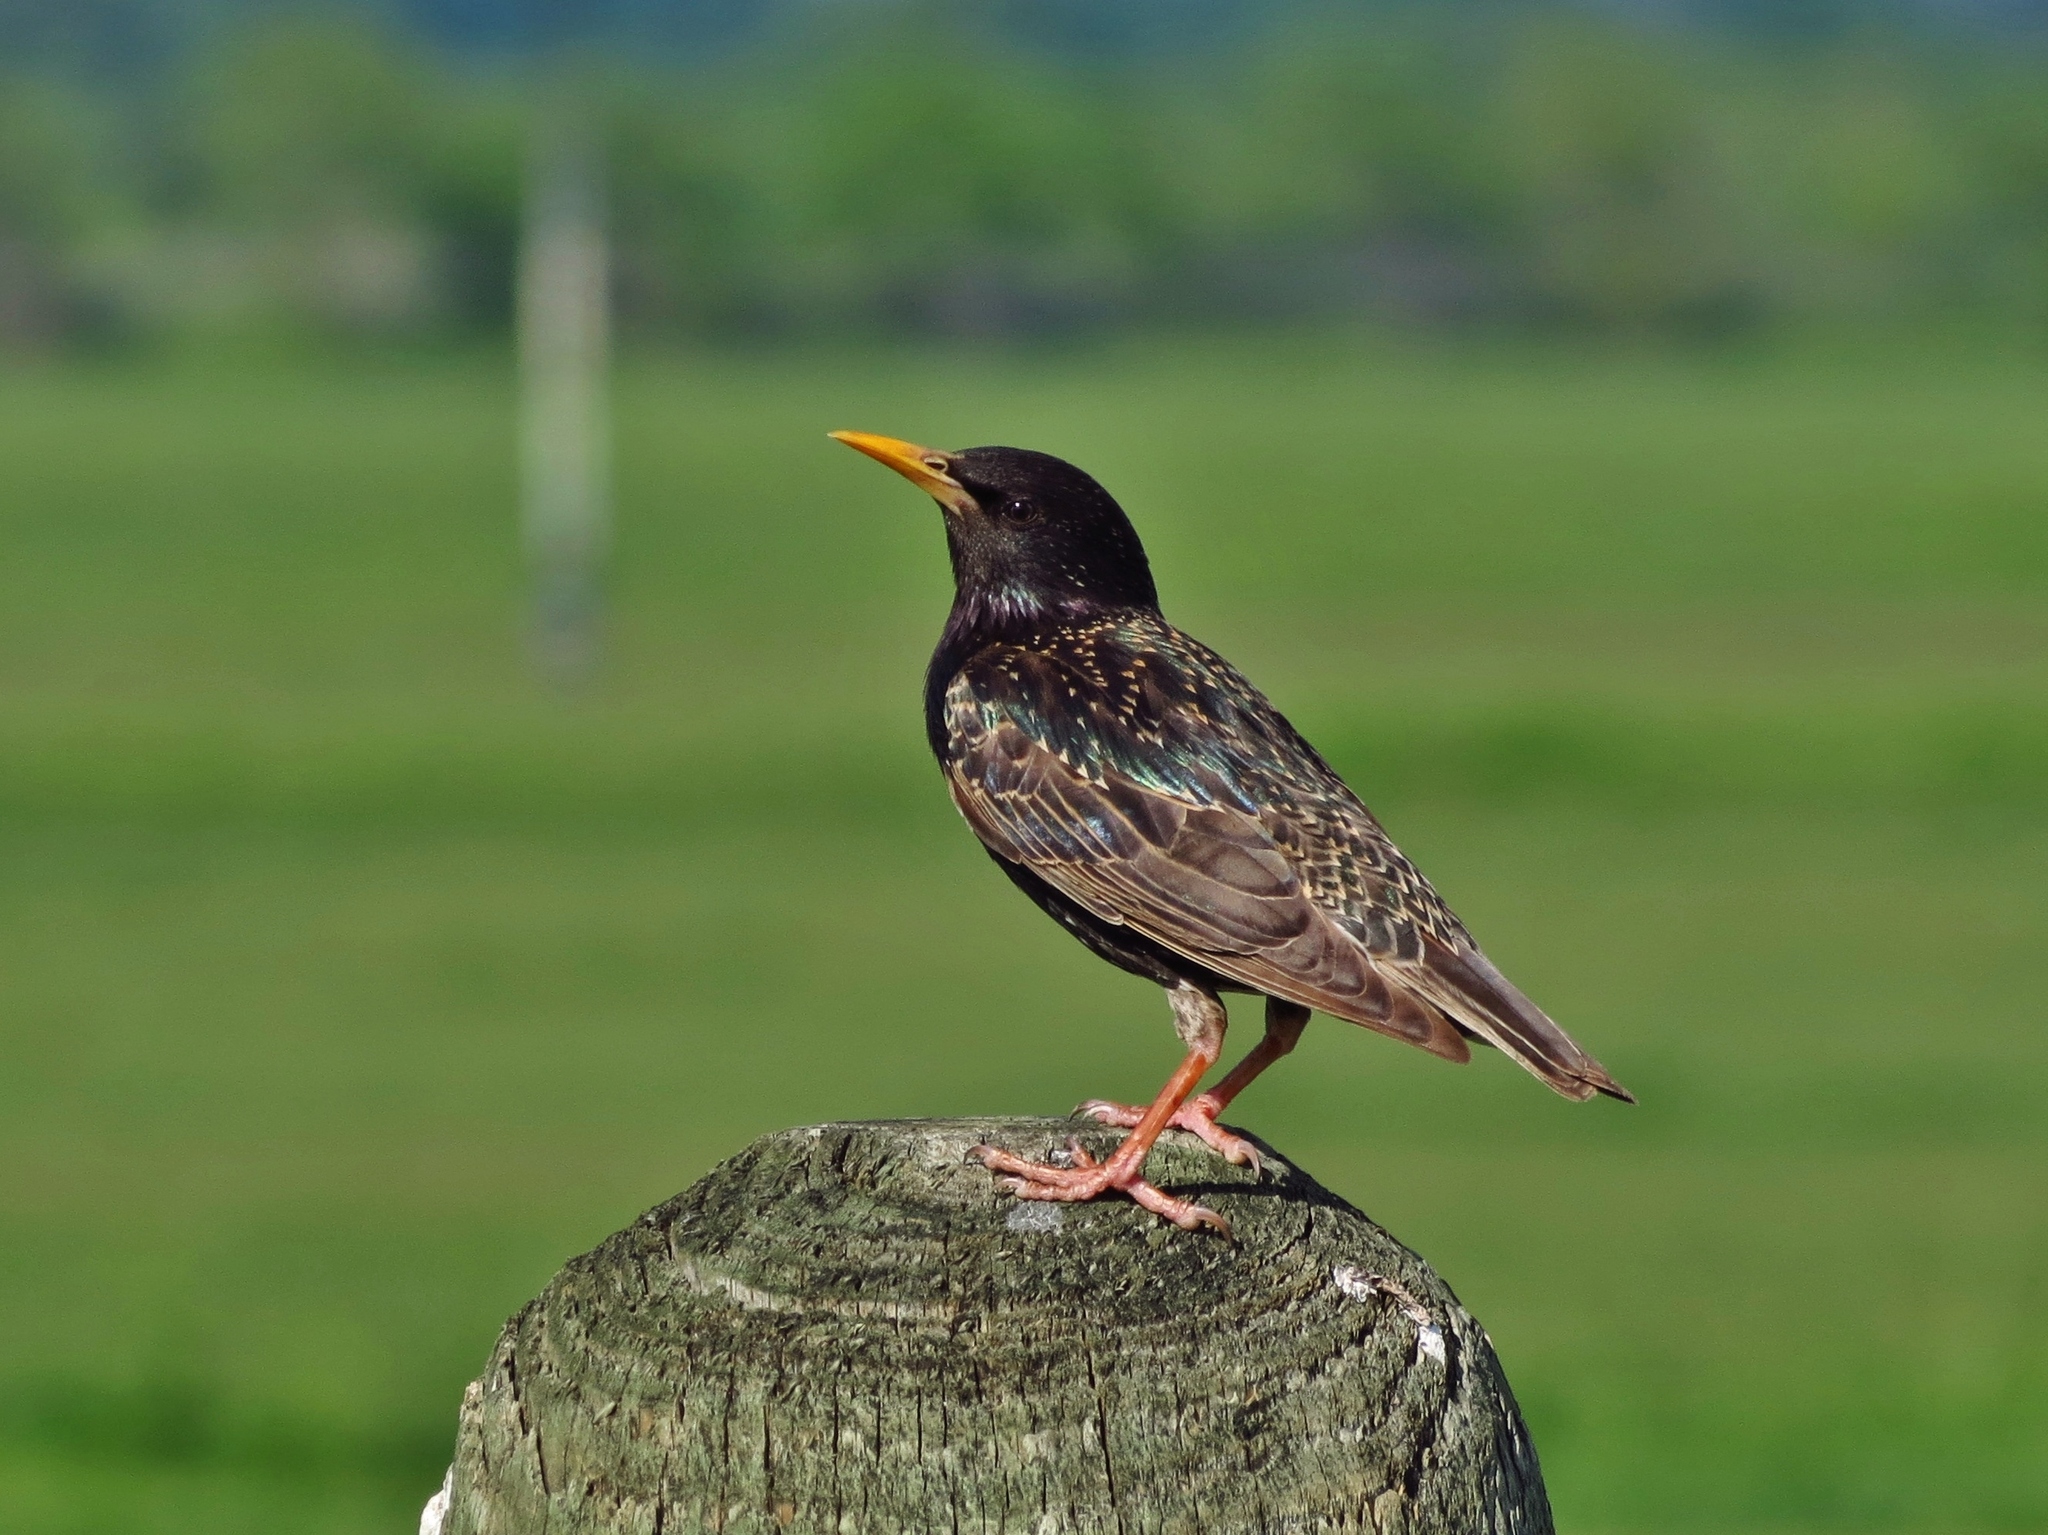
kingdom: Animalia
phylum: Chordata
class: Aves
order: Passeriformes
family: Sturnidae
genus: Sturnus
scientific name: Sturnus vulgaris
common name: Common starling
